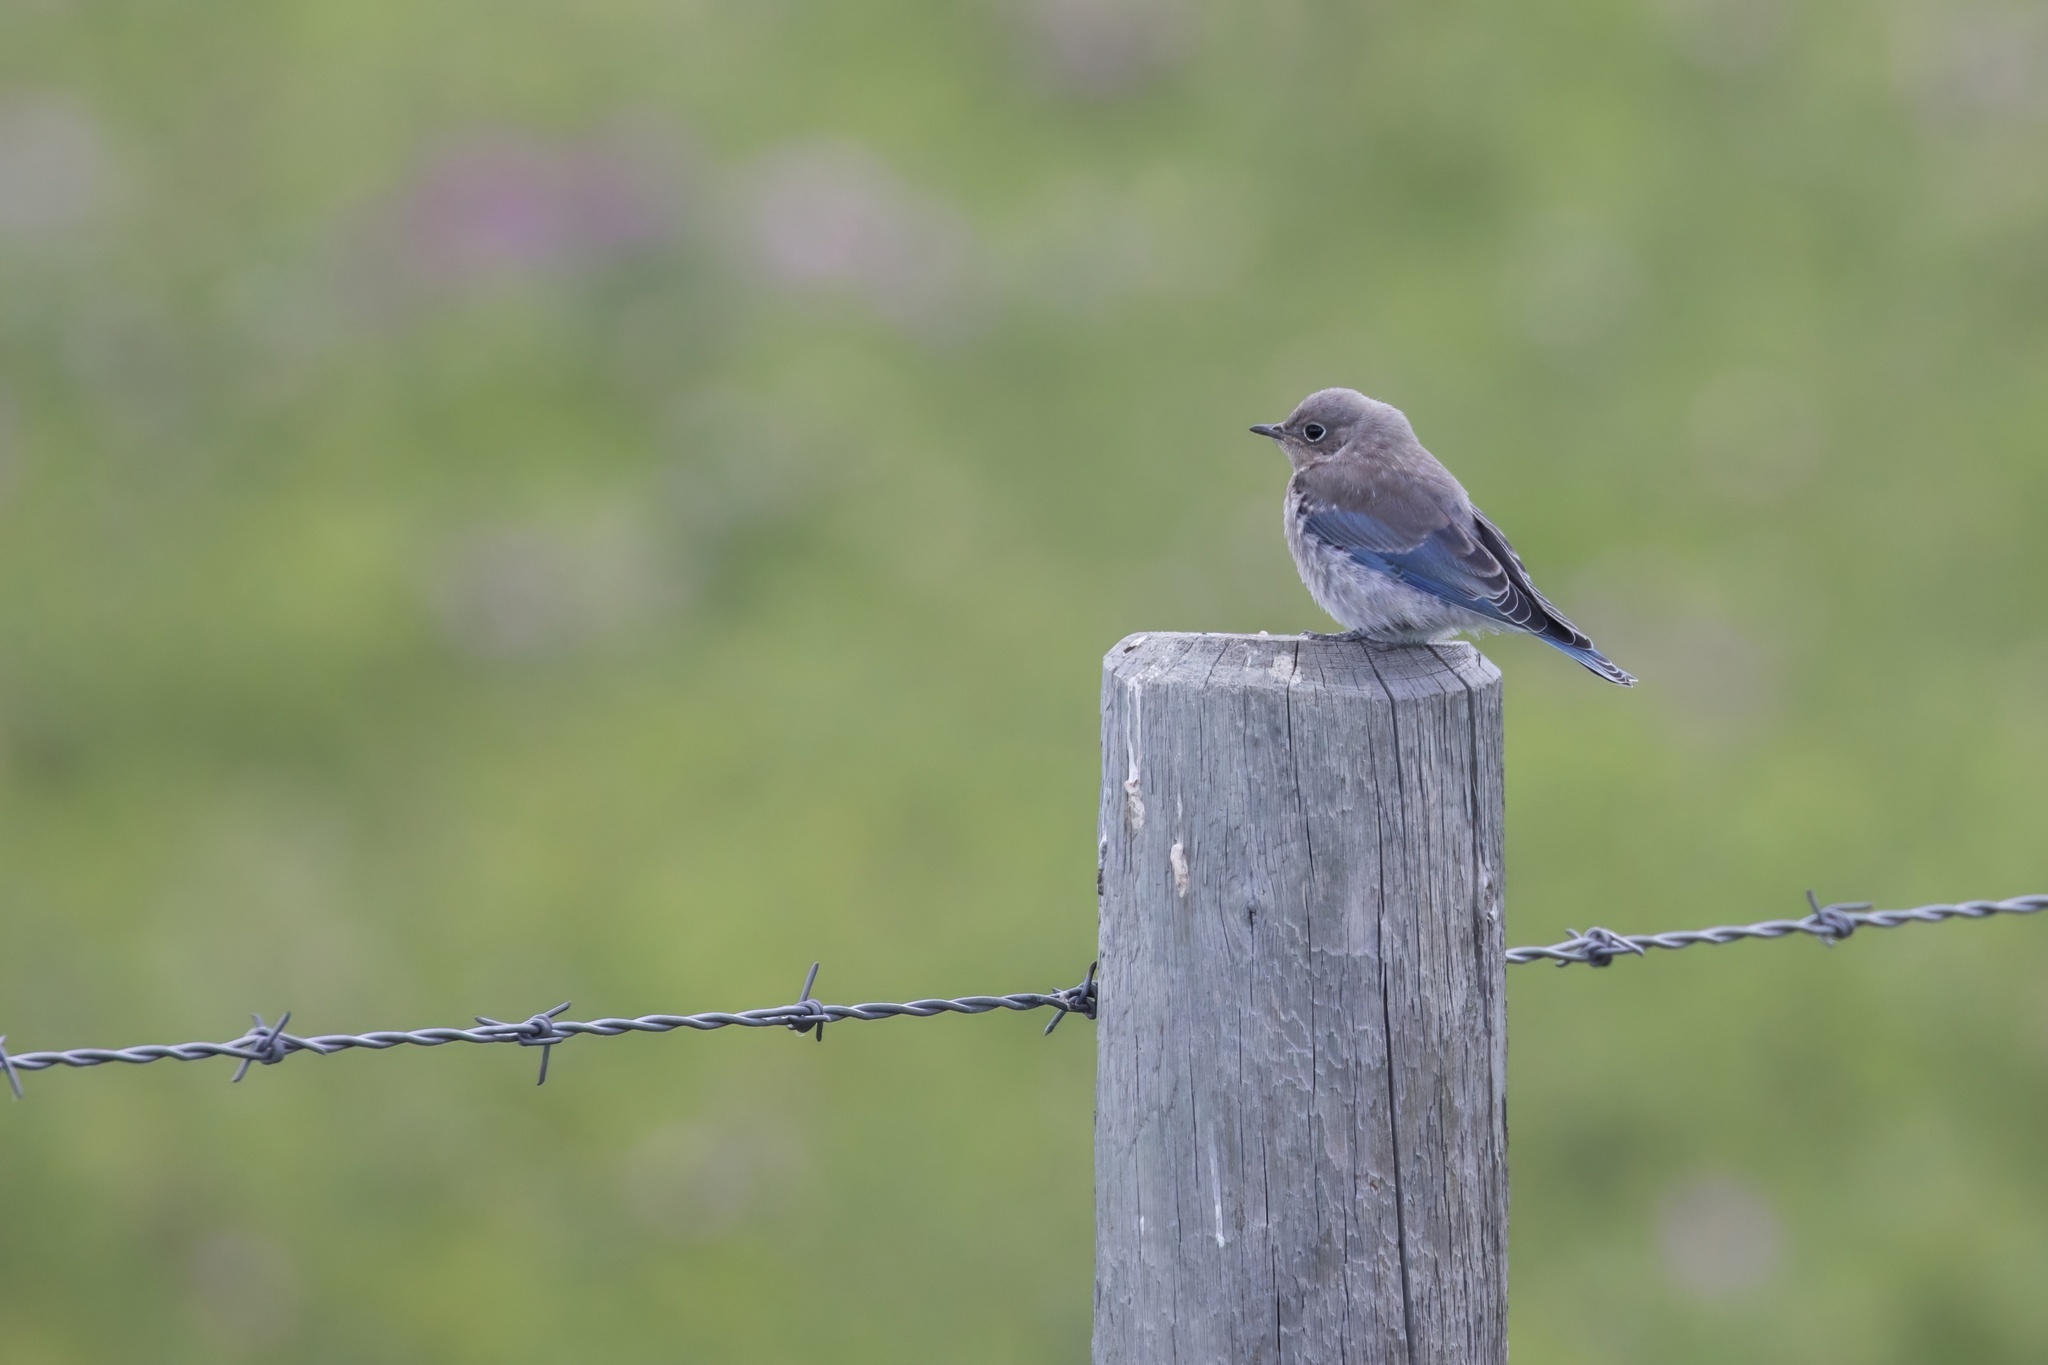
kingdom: Animalia
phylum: Chordata
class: Aves
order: Passeriformes
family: Turdidae
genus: Sialia
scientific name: Sialia currucoides
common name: Mountain bluebird
